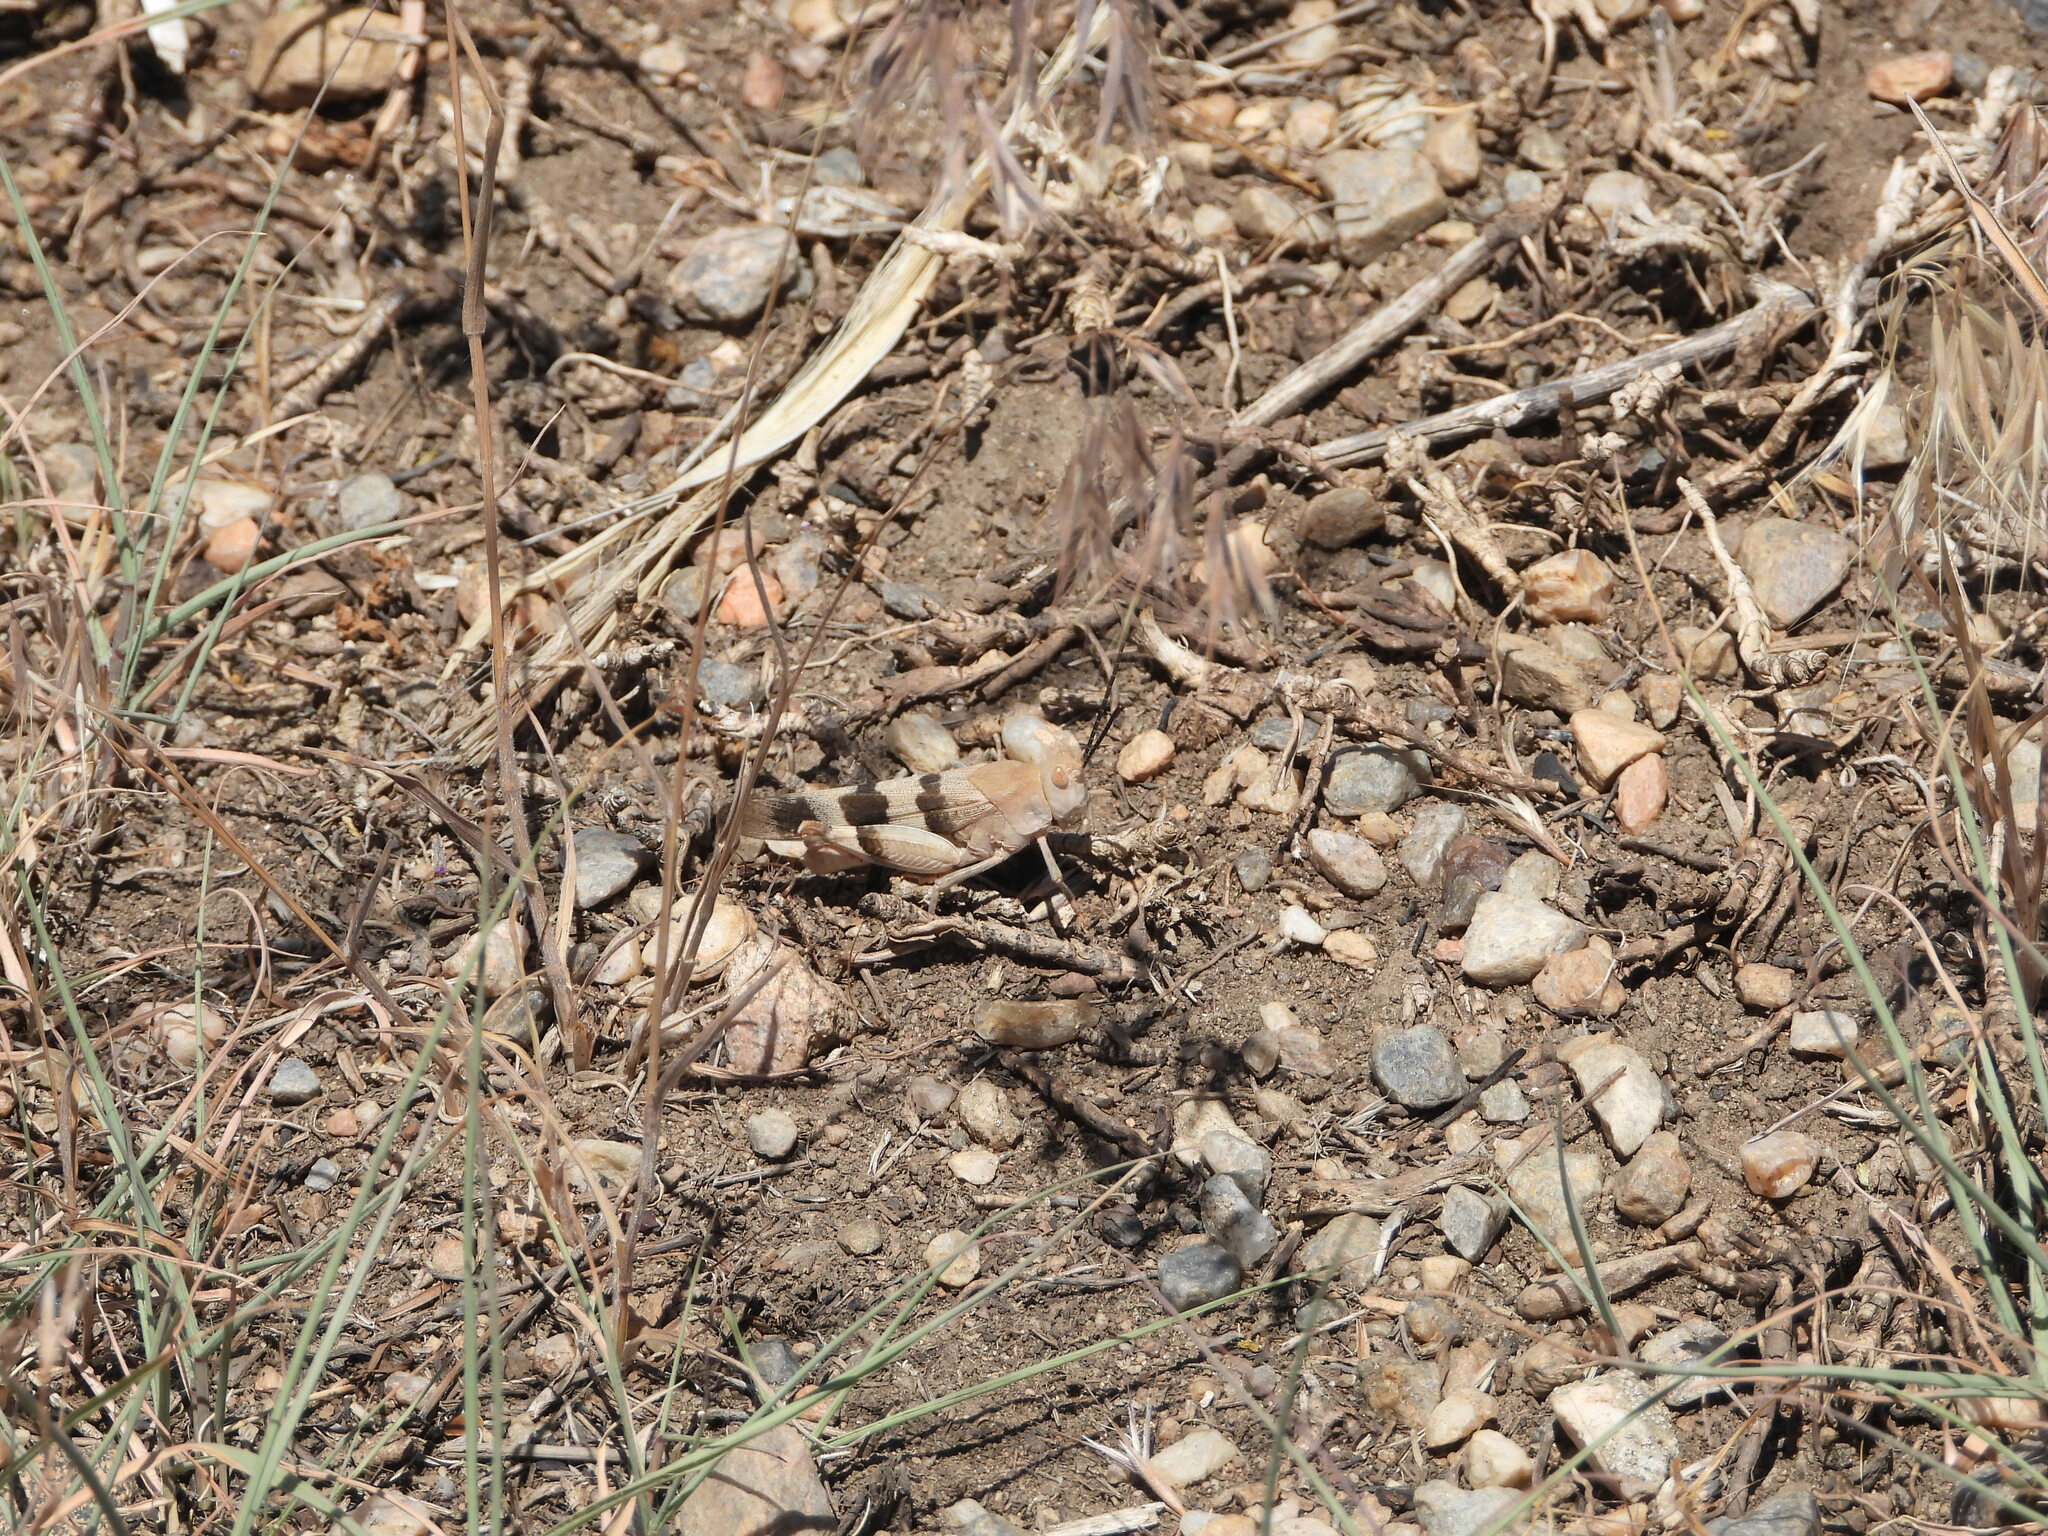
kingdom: Animalia
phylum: Arthropoda
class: Insecta
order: Orthoptera
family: Acrididae
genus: Hadrotettix
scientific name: Hadrotettix trifasciatus
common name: Threebanded grasshopper
